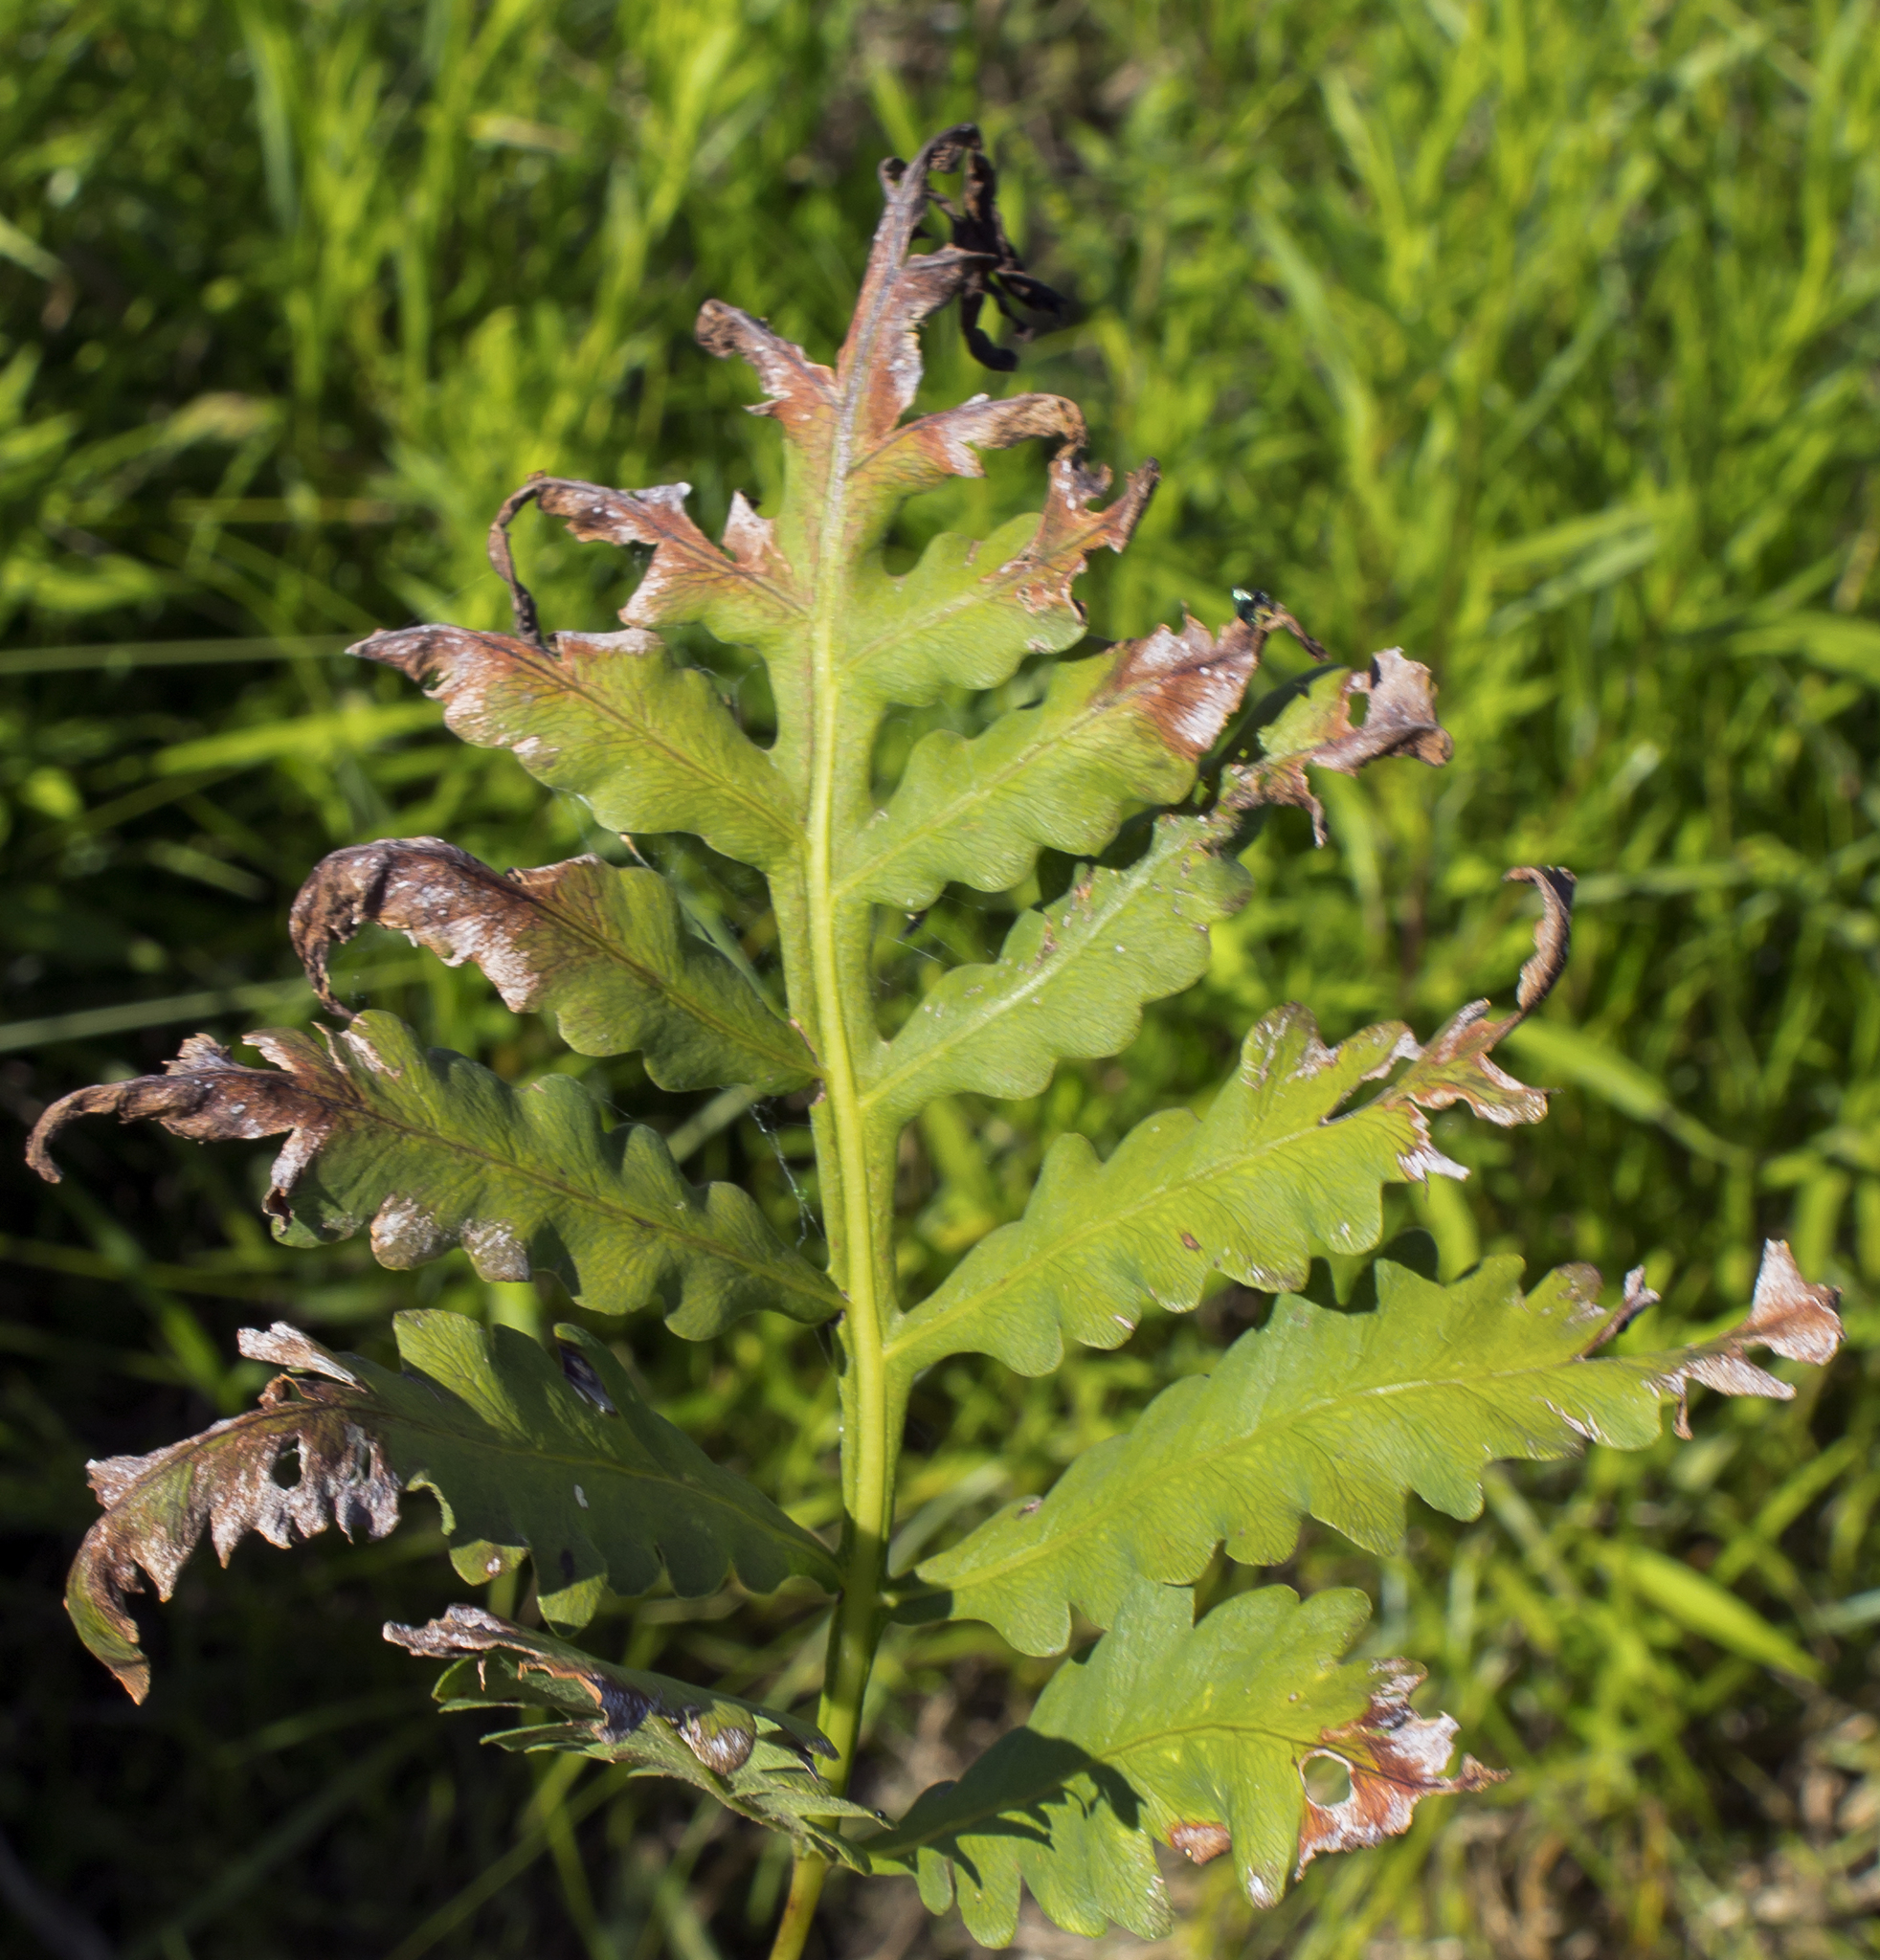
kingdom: Plantae
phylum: Tracheophyta
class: Polypodiopsida
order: Polypodiales
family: Onocleaceae
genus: Onoclea
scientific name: Onoclea sensibilis
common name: Sensitive fern
